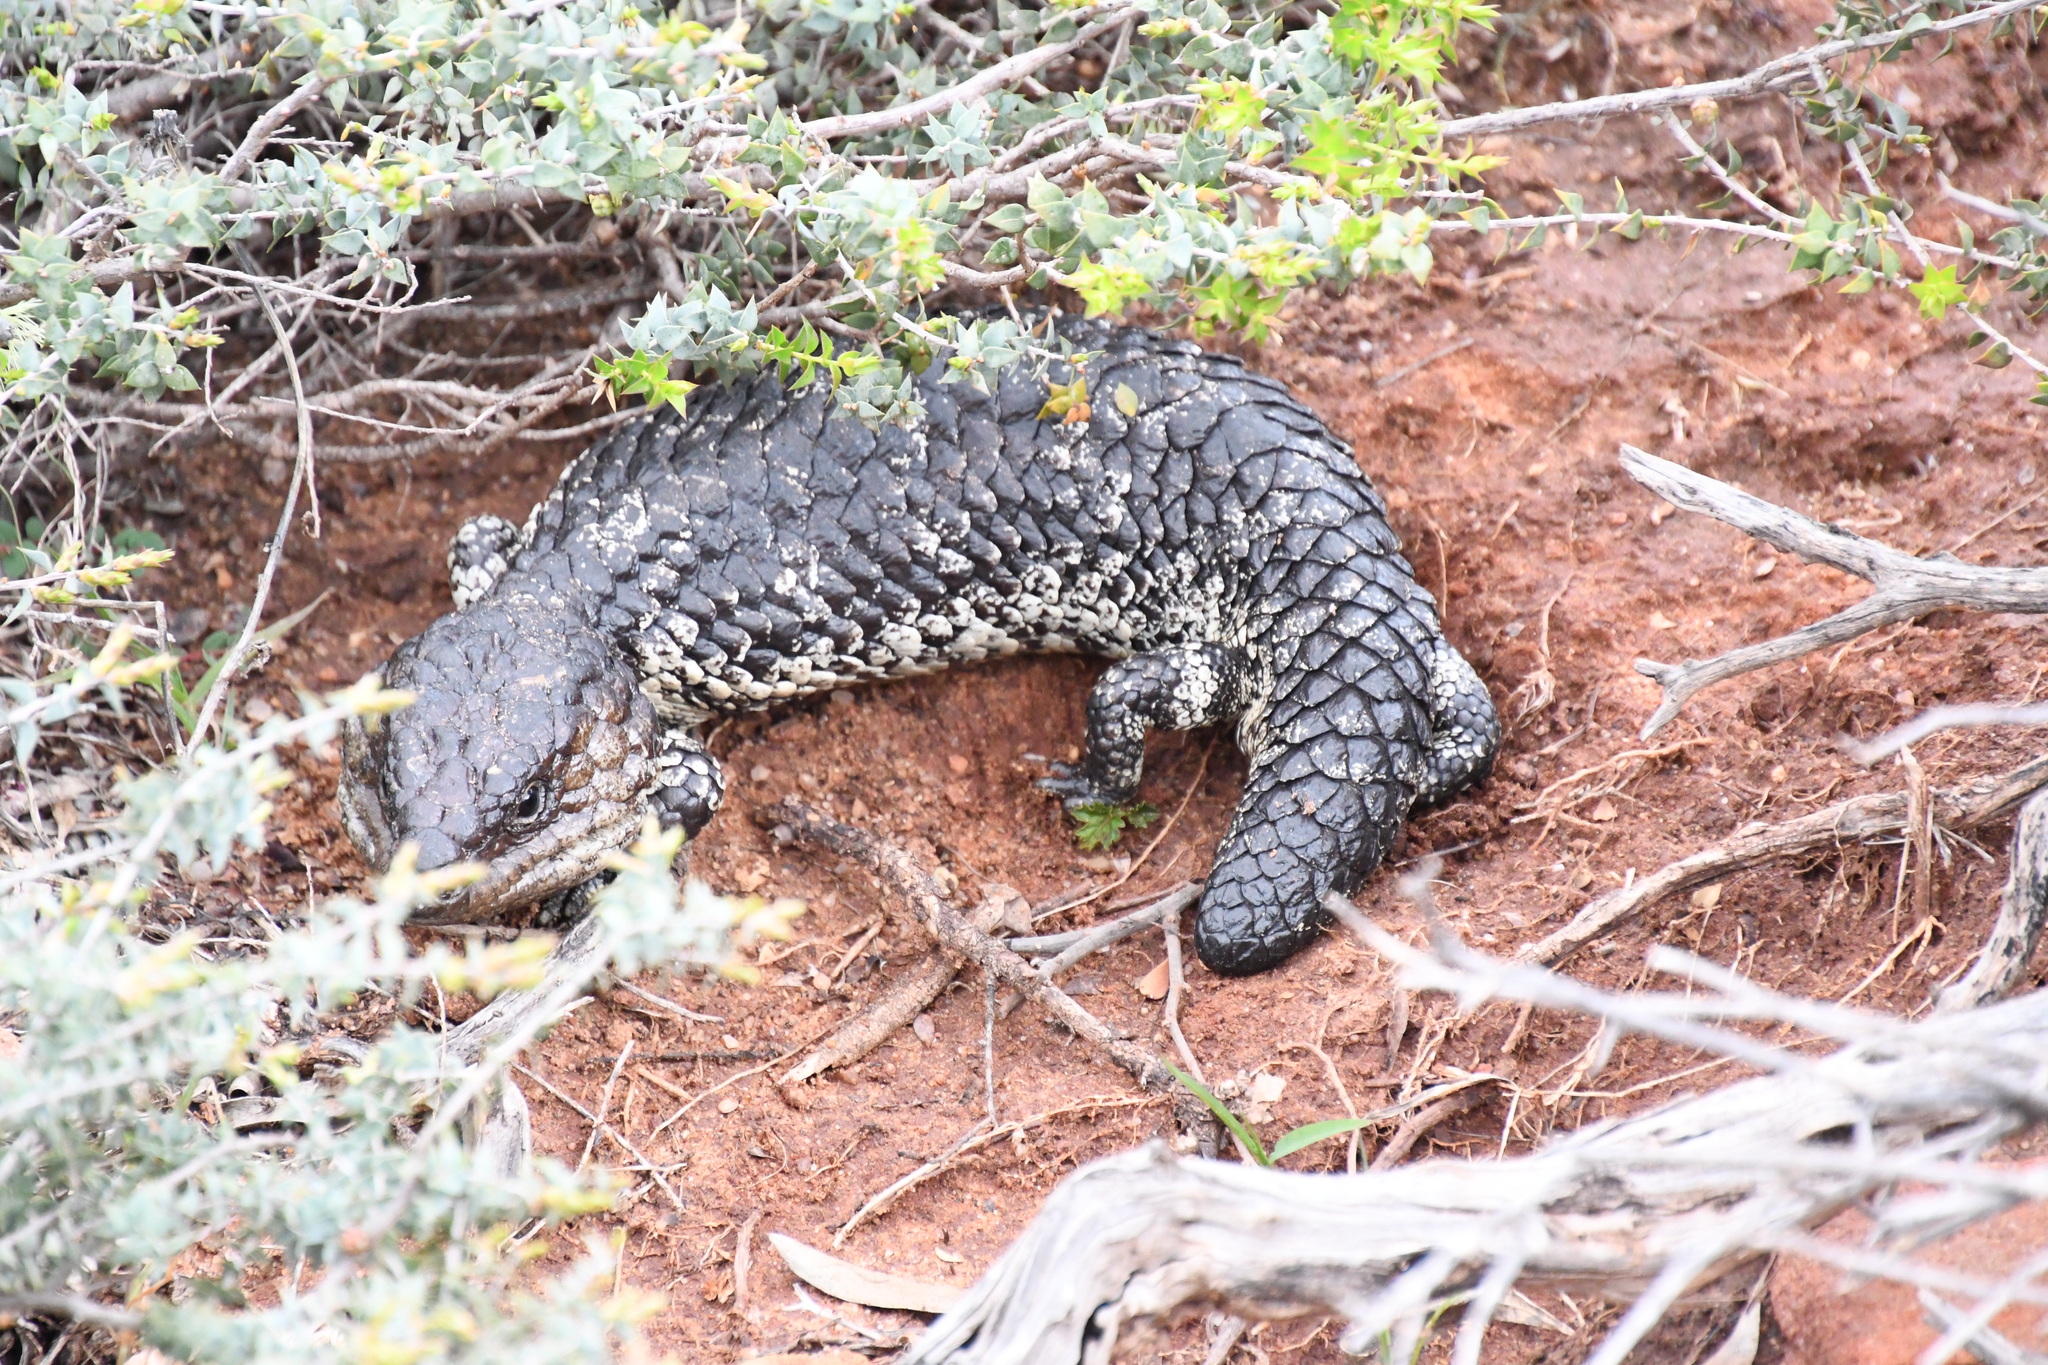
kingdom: Animalia
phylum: Chordata
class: Squamata
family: Scincidae
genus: Tiliqua
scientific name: Tiliqua rugosa
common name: Pinecone lizard
